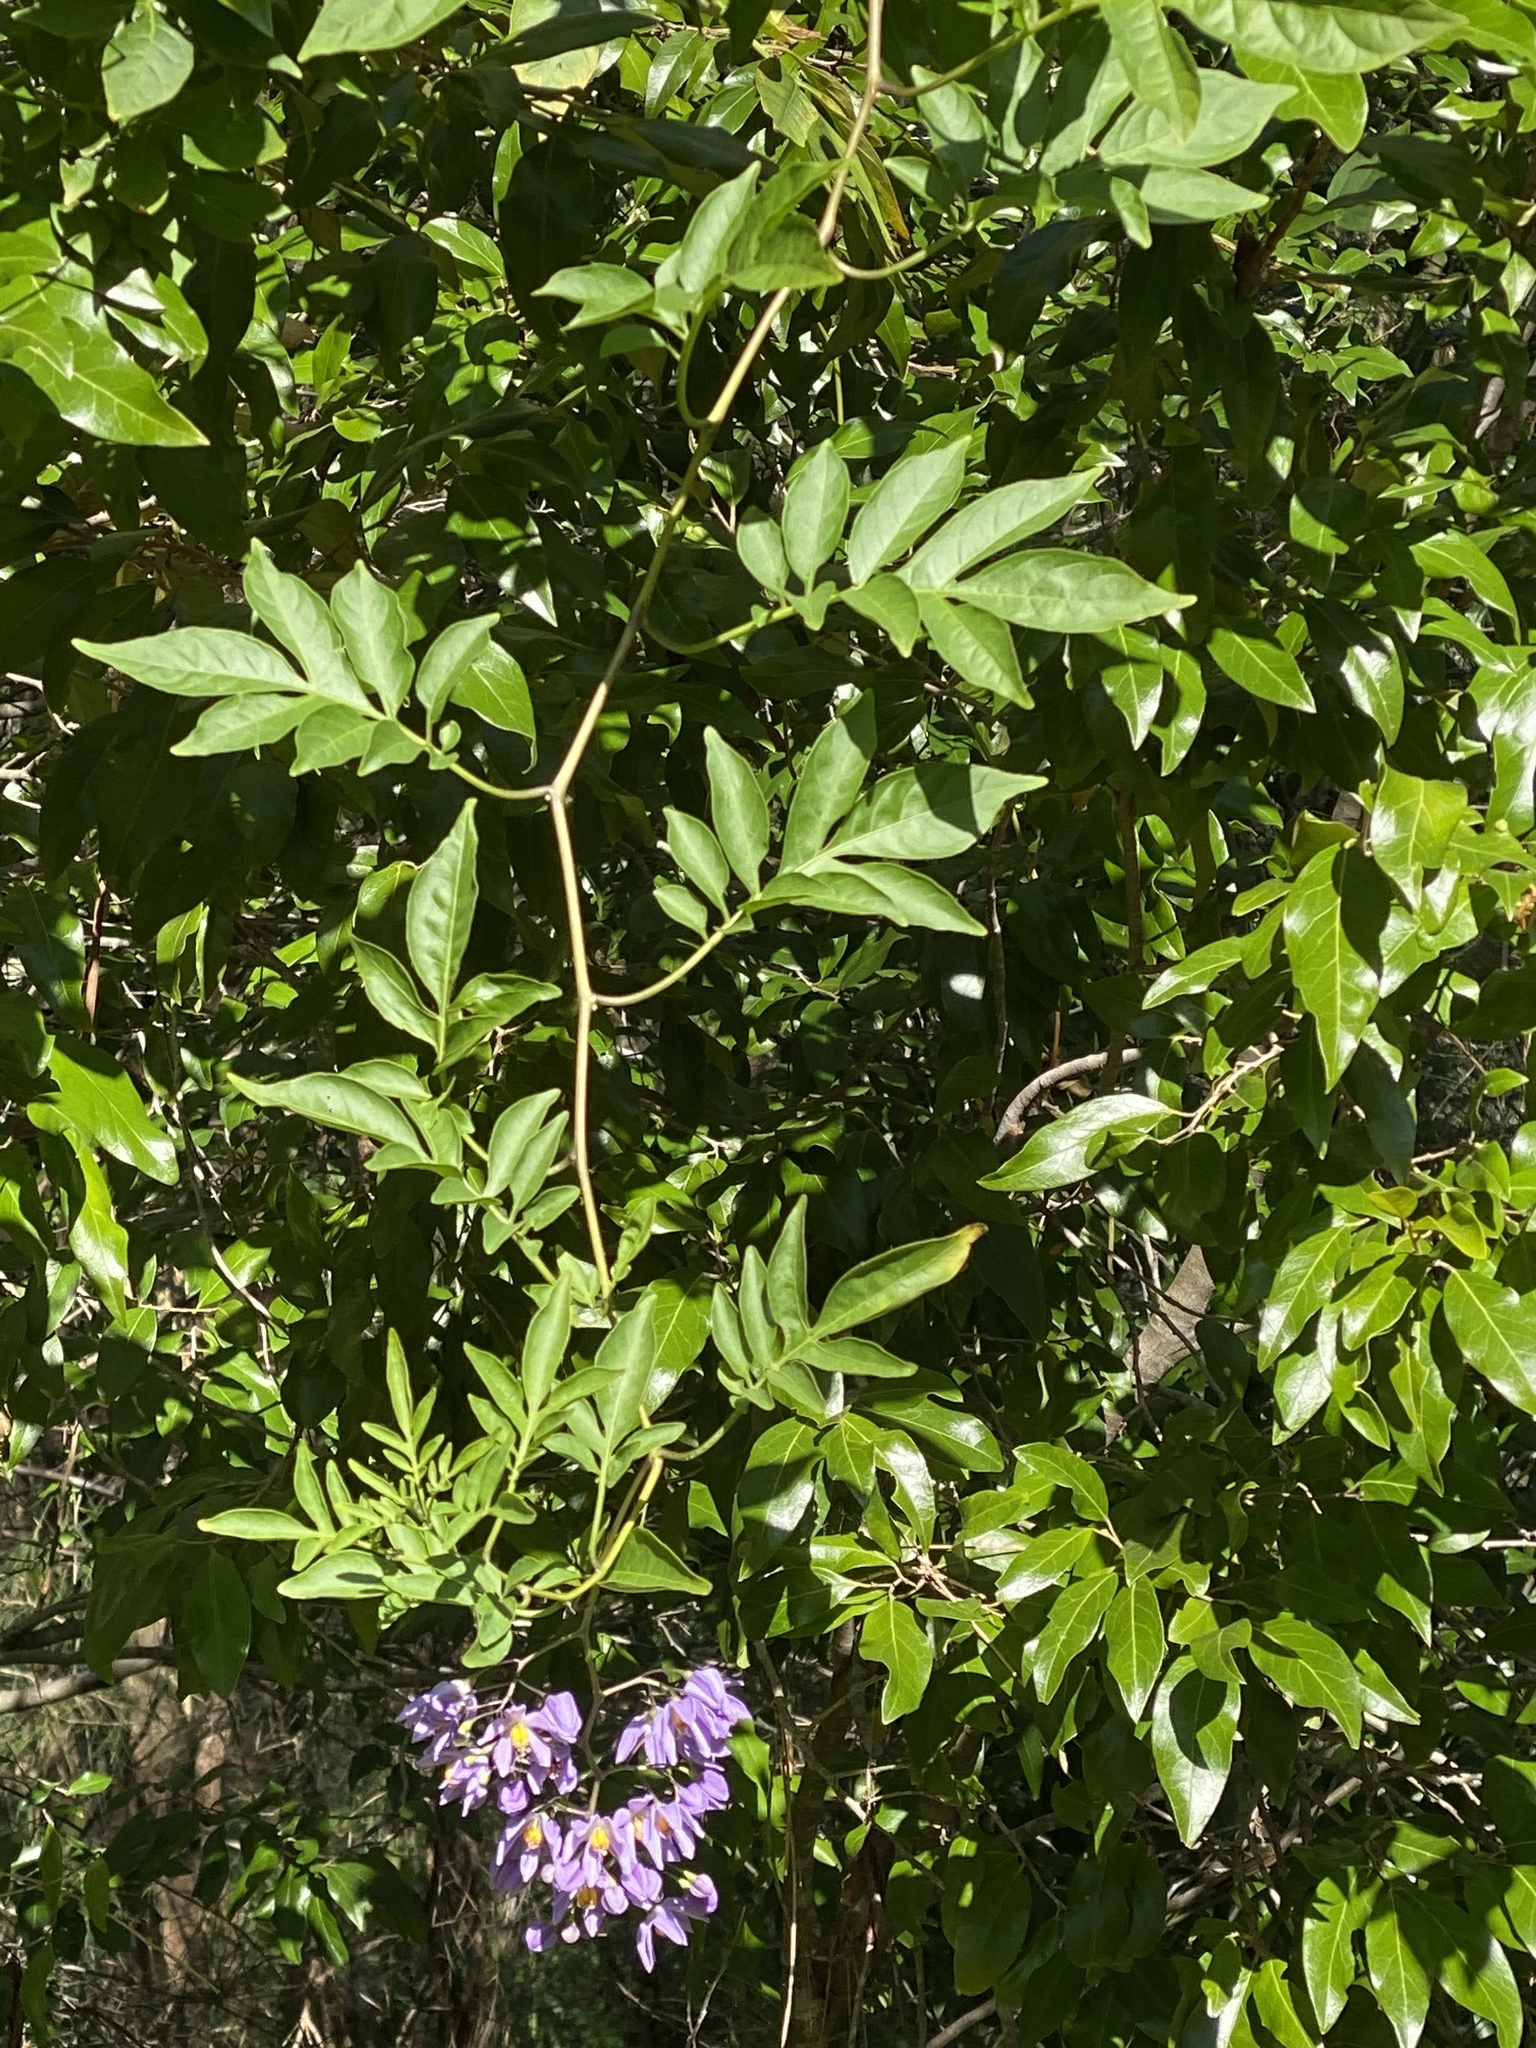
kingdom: Plantae
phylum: Tracheophyta
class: Magnoliopsida
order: Solanales
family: Solanaceae
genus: Solanum
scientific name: Solanum seaforthianum
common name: Brazilian nightshade
